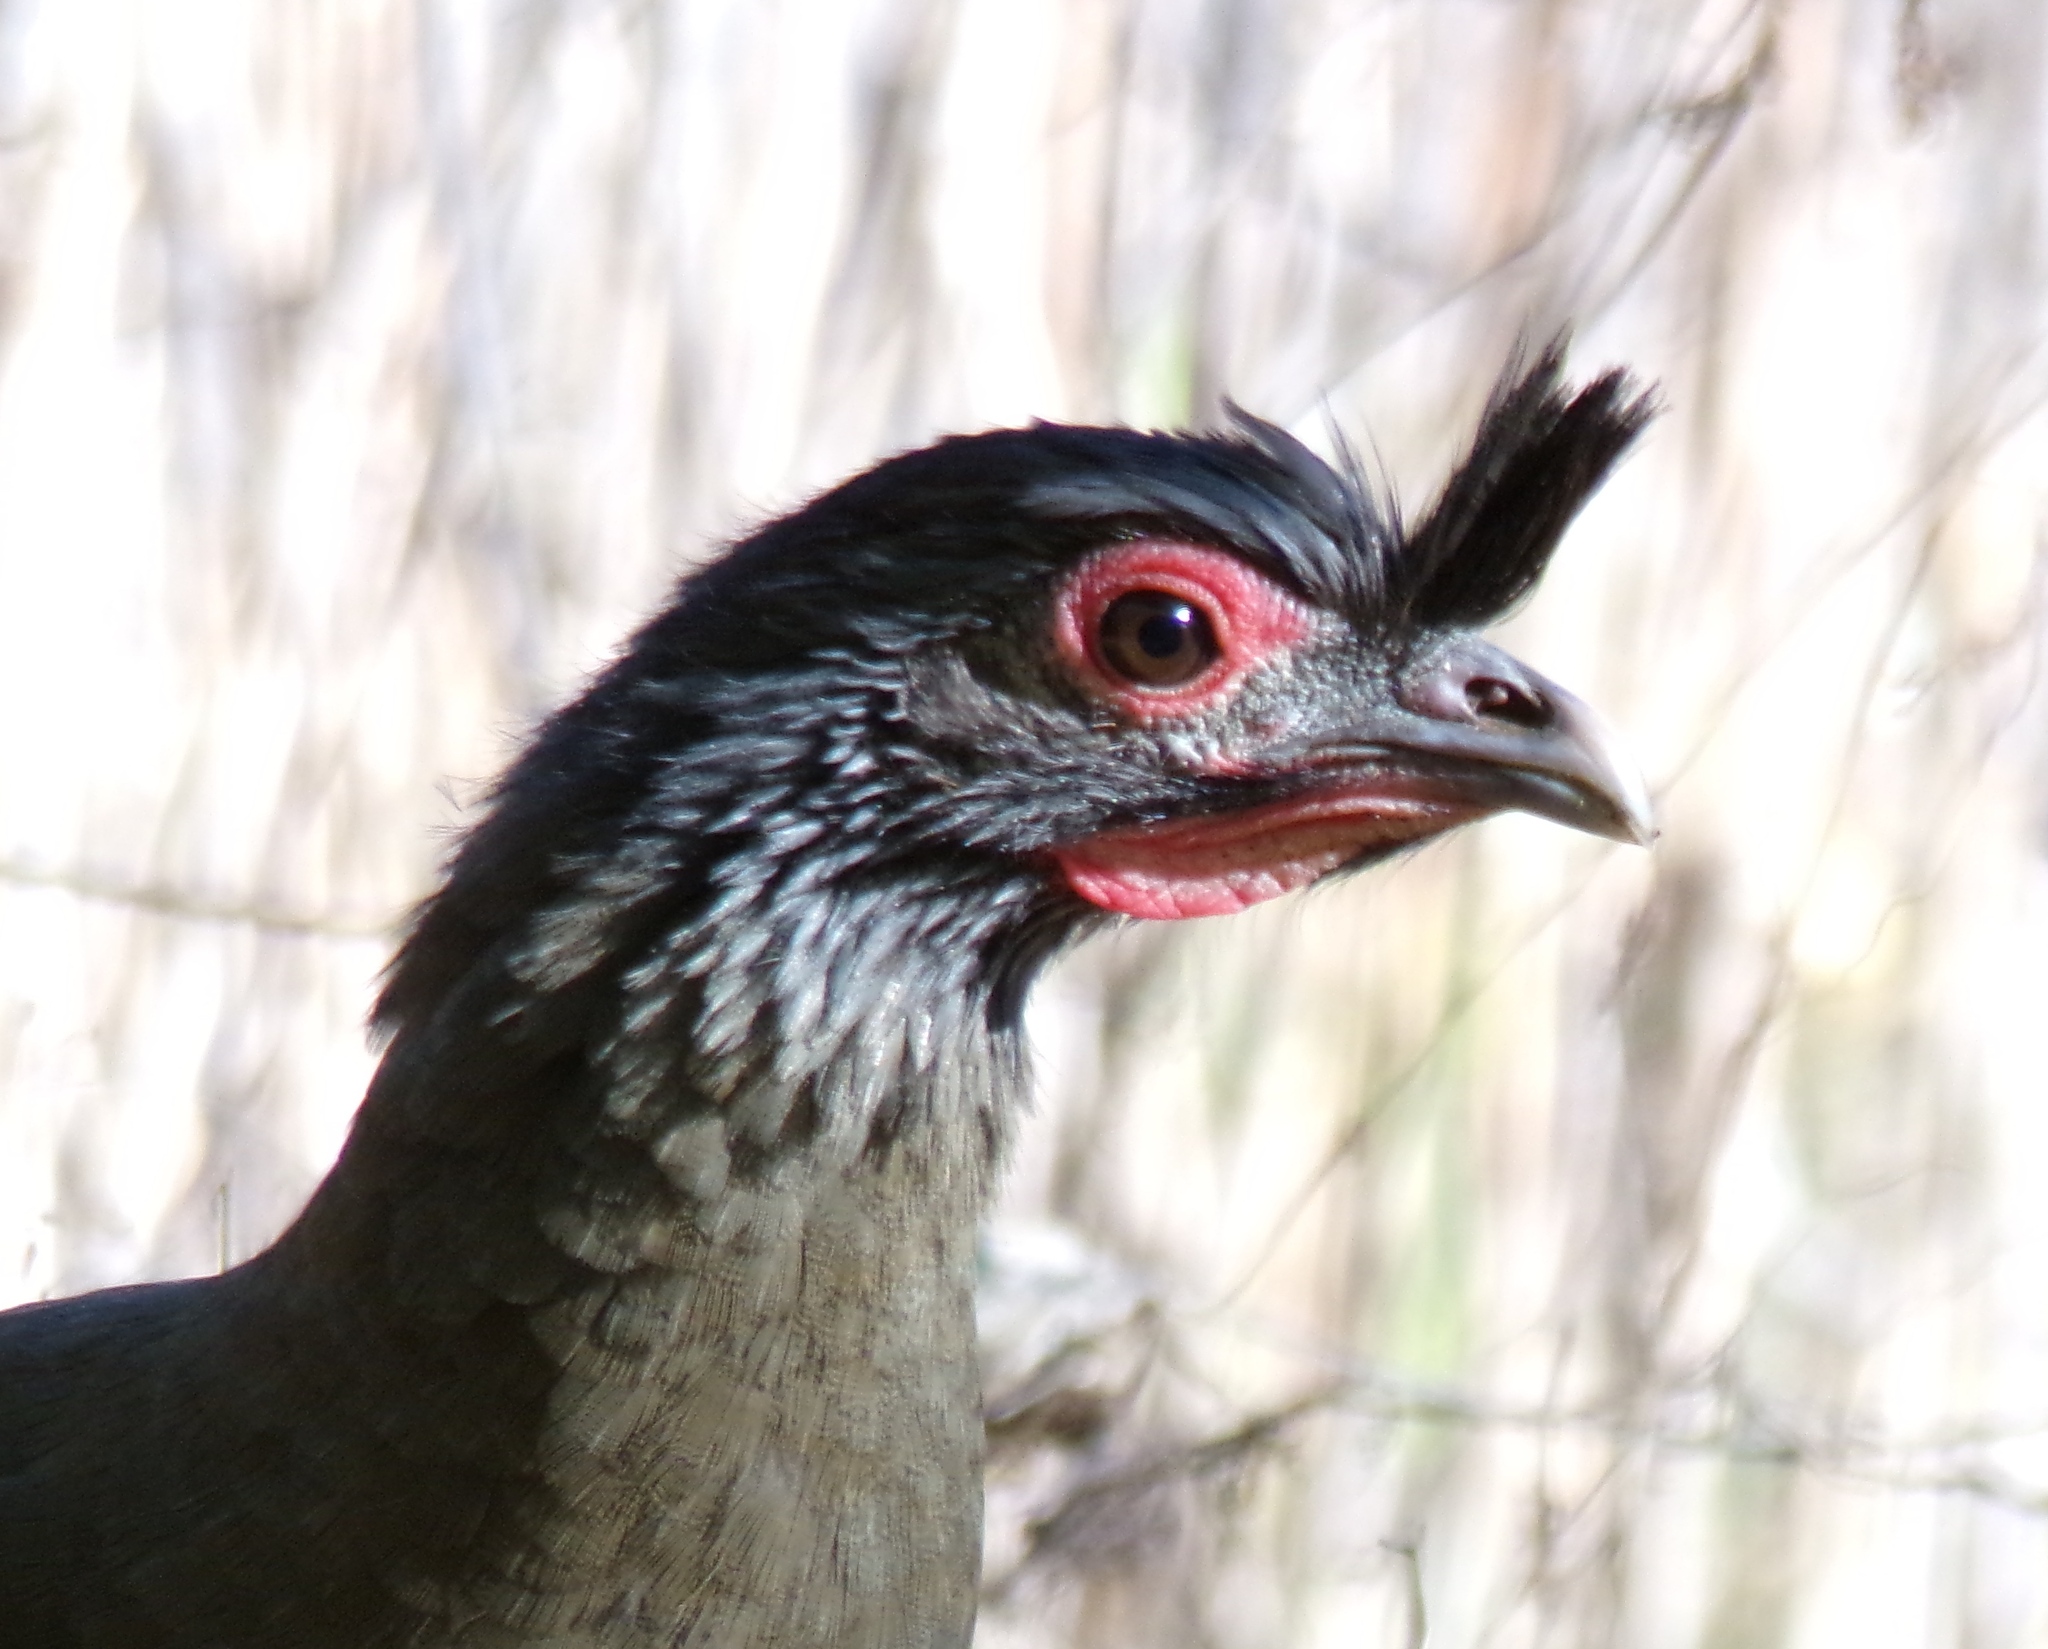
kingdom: Animalia
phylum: Chordata
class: Aves
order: Galliformes
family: Cracidae
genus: Ortalis
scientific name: Ortalis wagleri
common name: Rufous-bellied chachalaca
